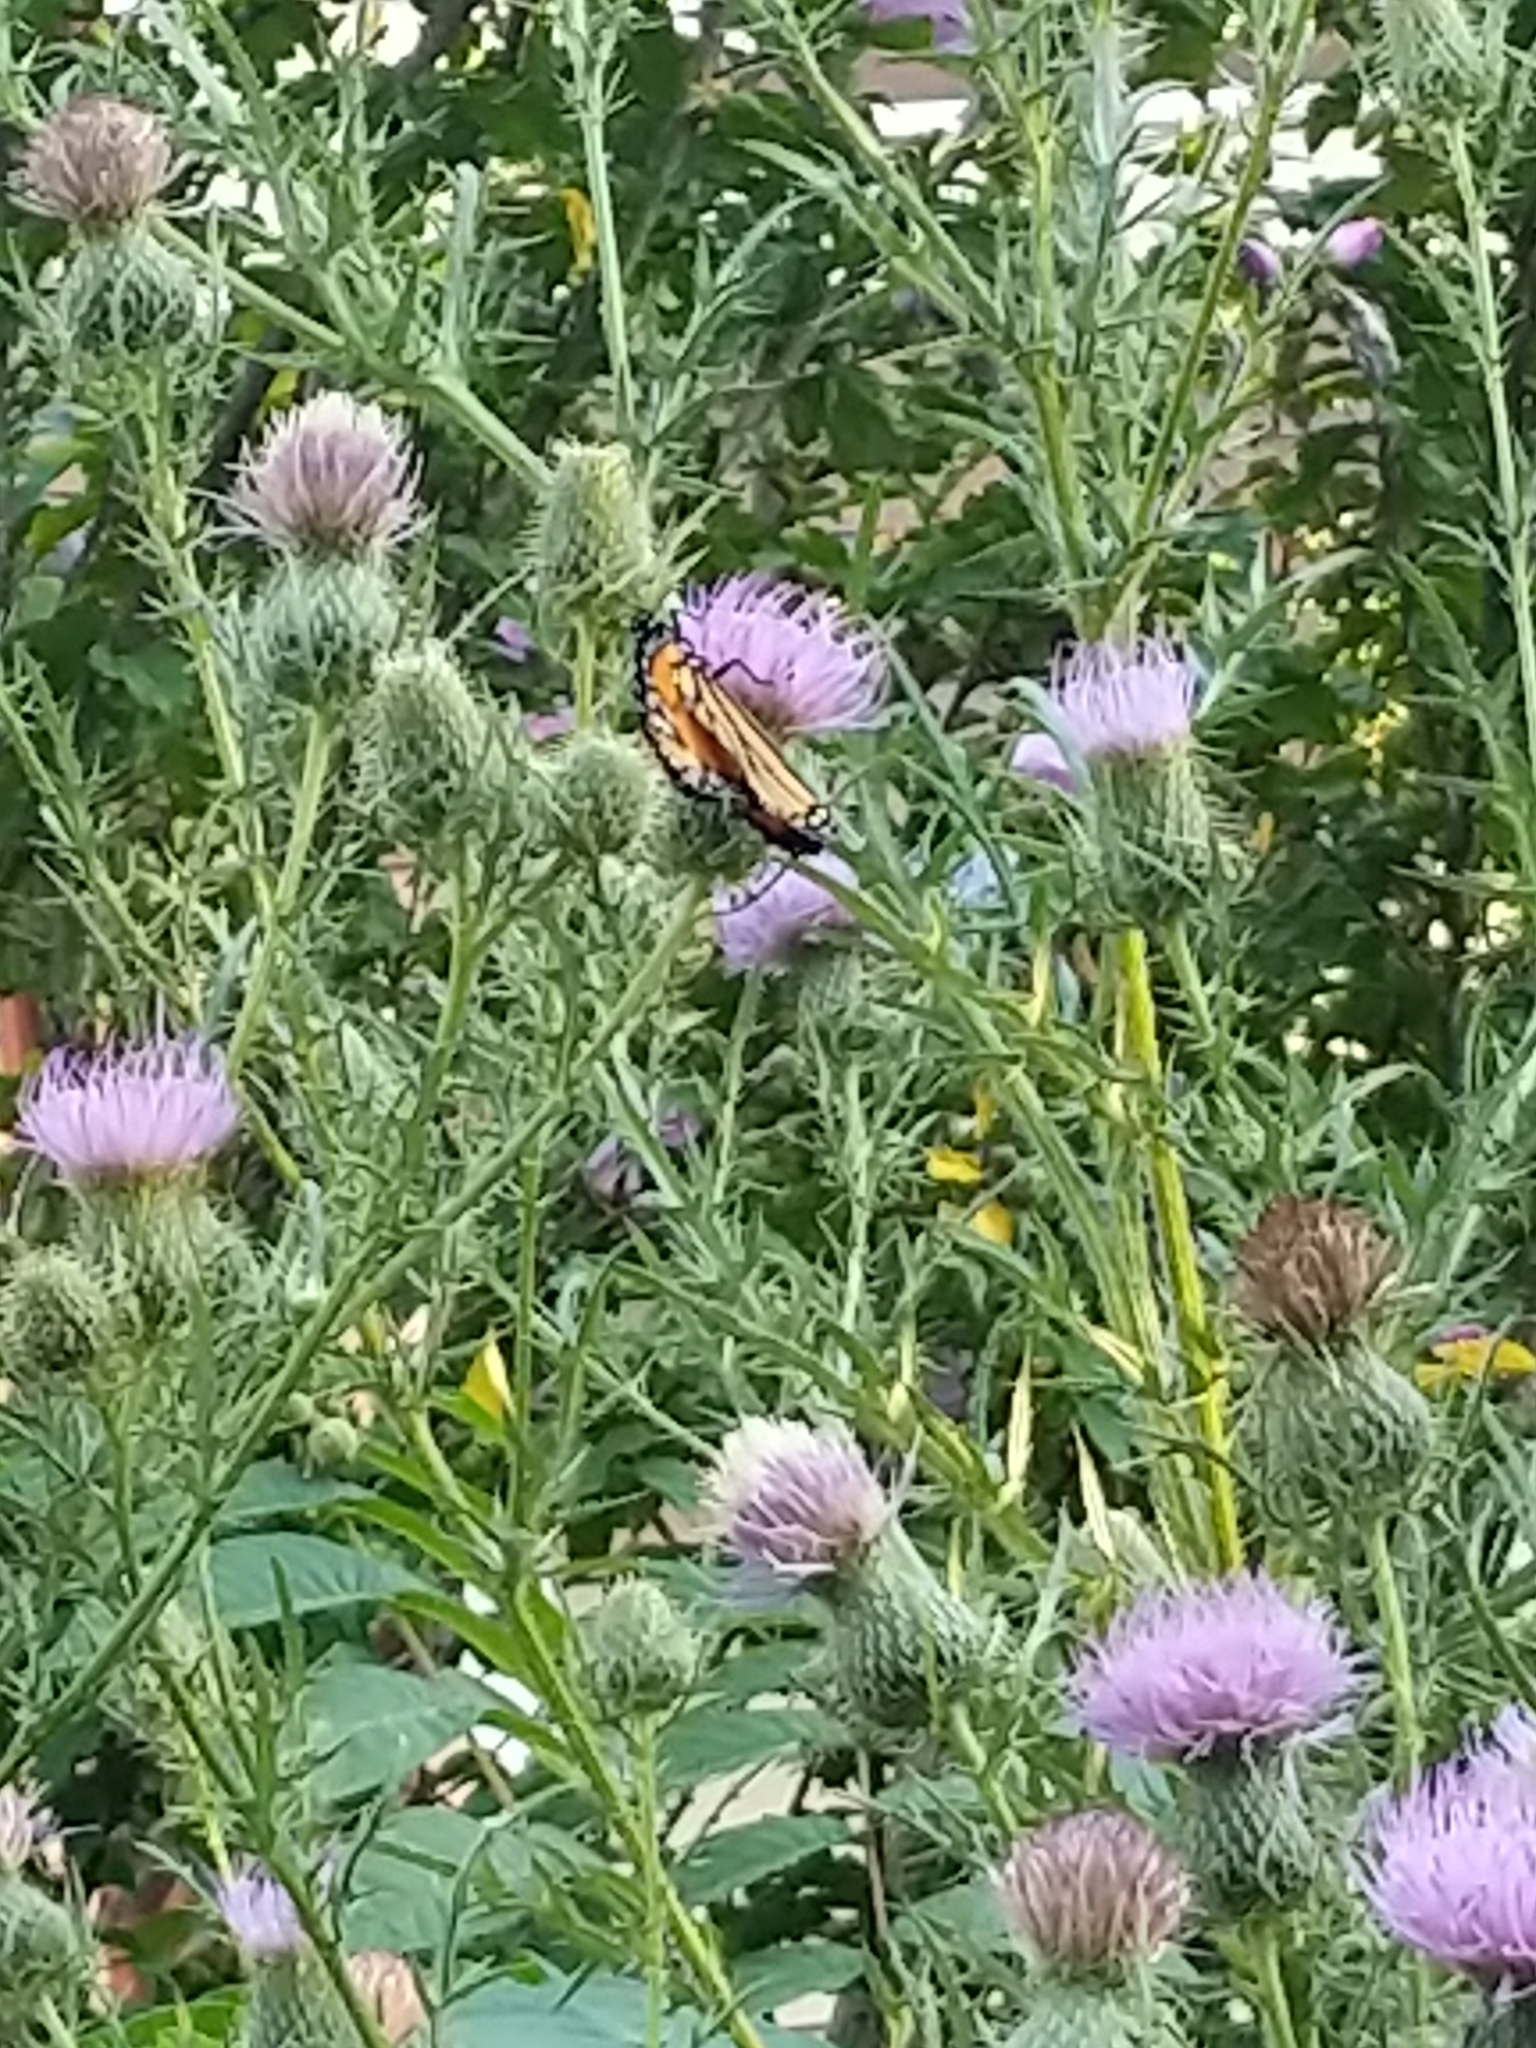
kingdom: Animalia
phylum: Arthropoda
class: Insecta
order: Lepidoptera
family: Nymphalidae
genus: Danaus
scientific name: Danaus plexippus
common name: Monarch
